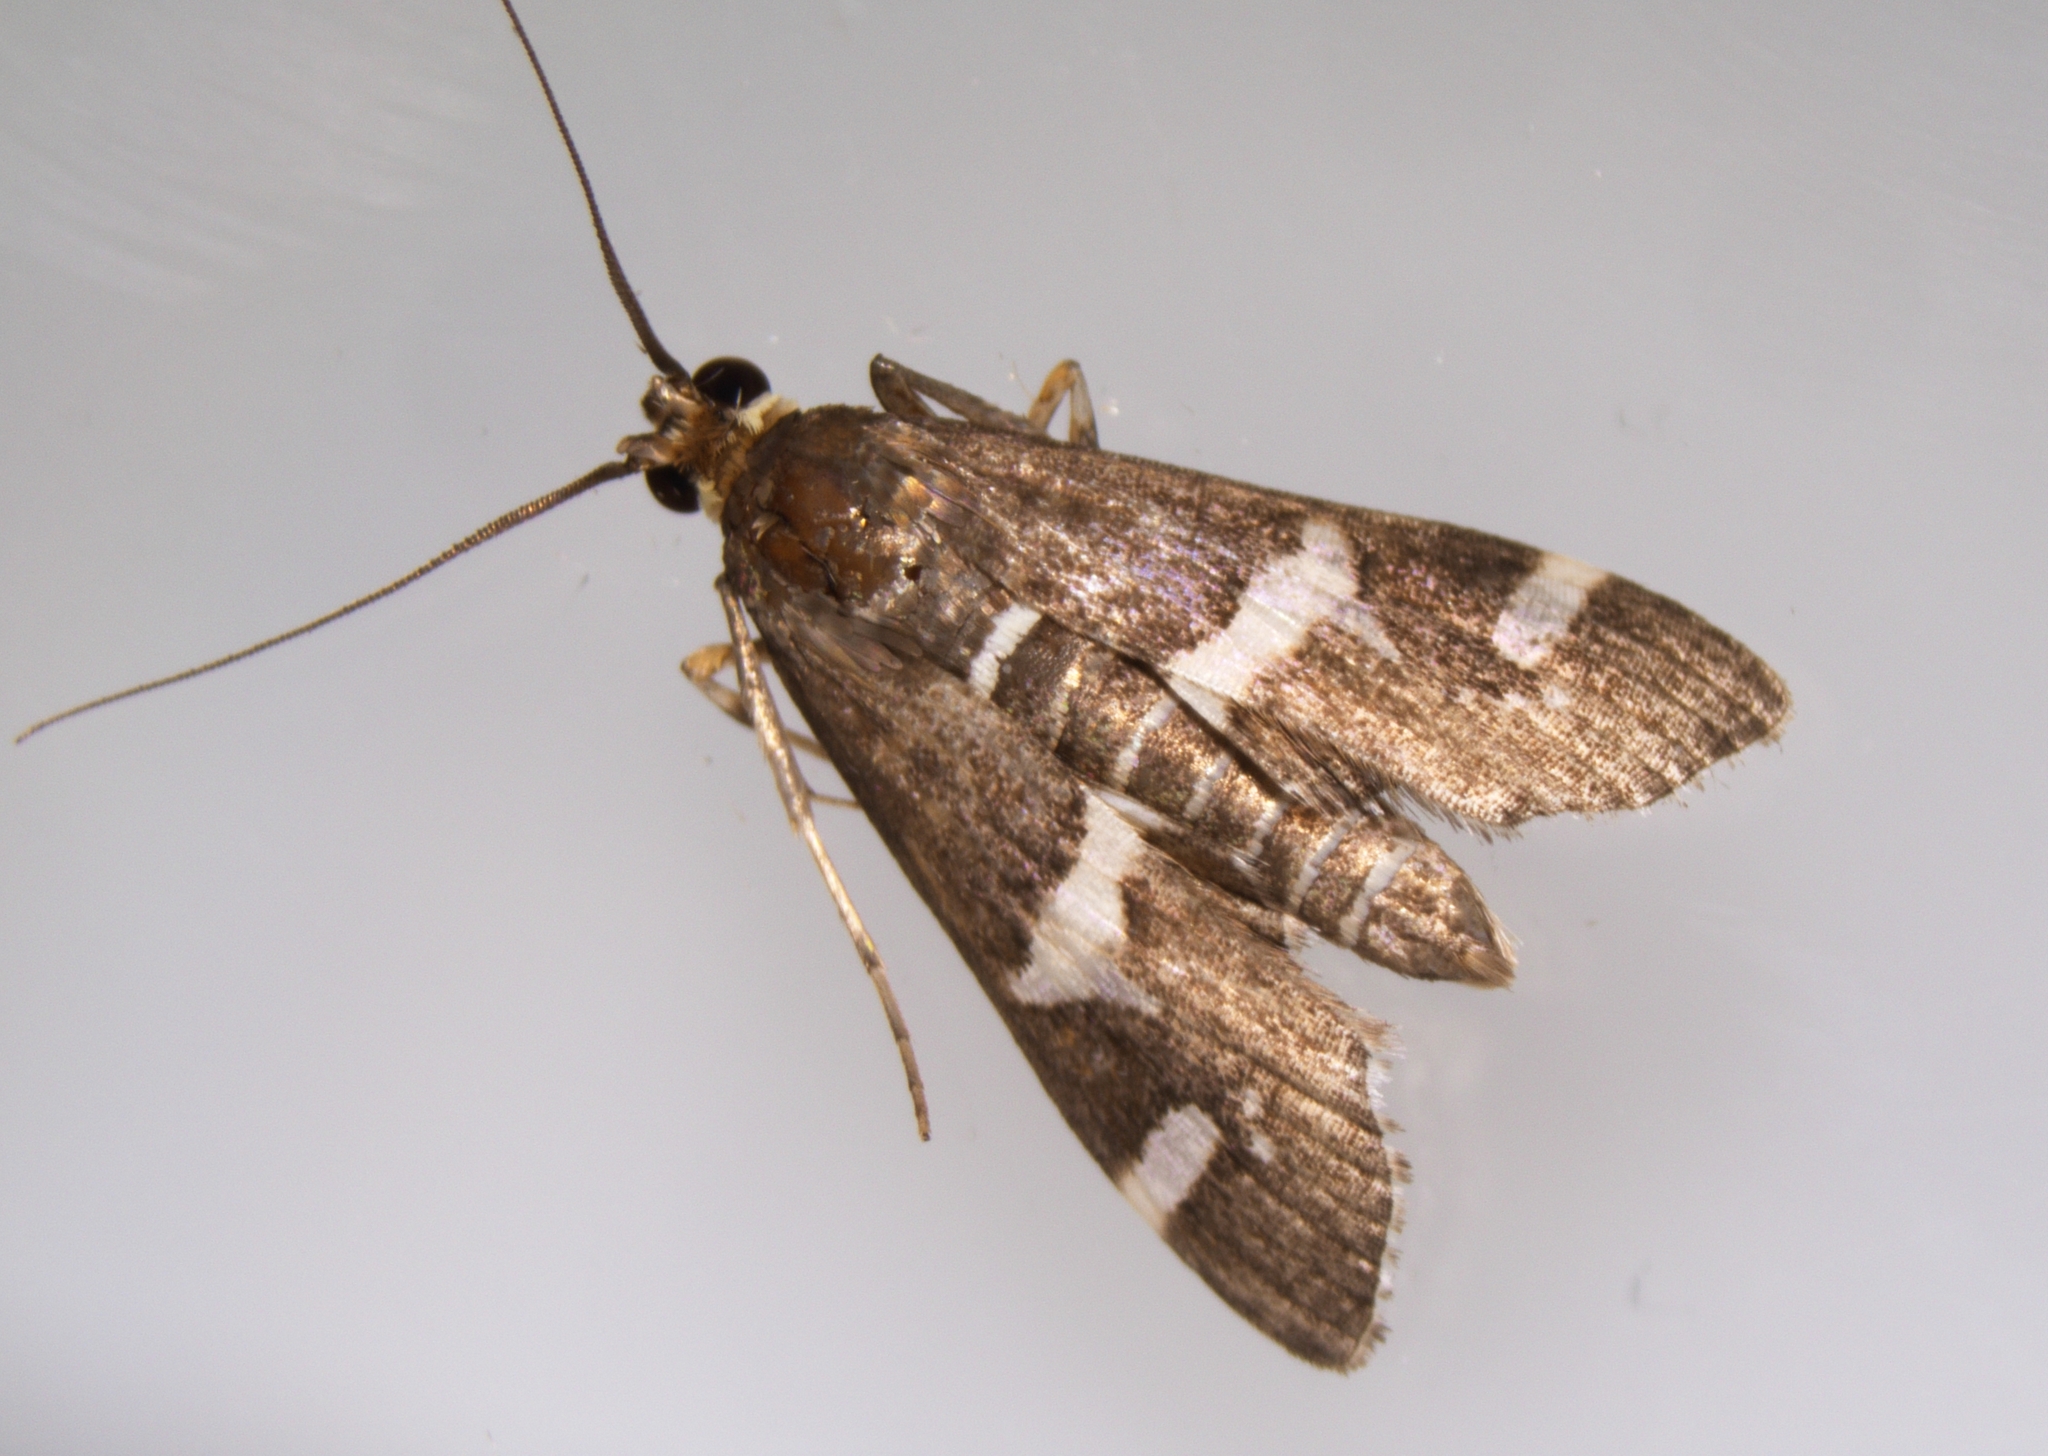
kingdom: Animalia
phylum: Arthropoda
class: Insecta
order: Lepidoptera
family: Crambidae
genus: Spoladea
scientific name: Spoladea recurvalis
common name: Beet webworm moth
